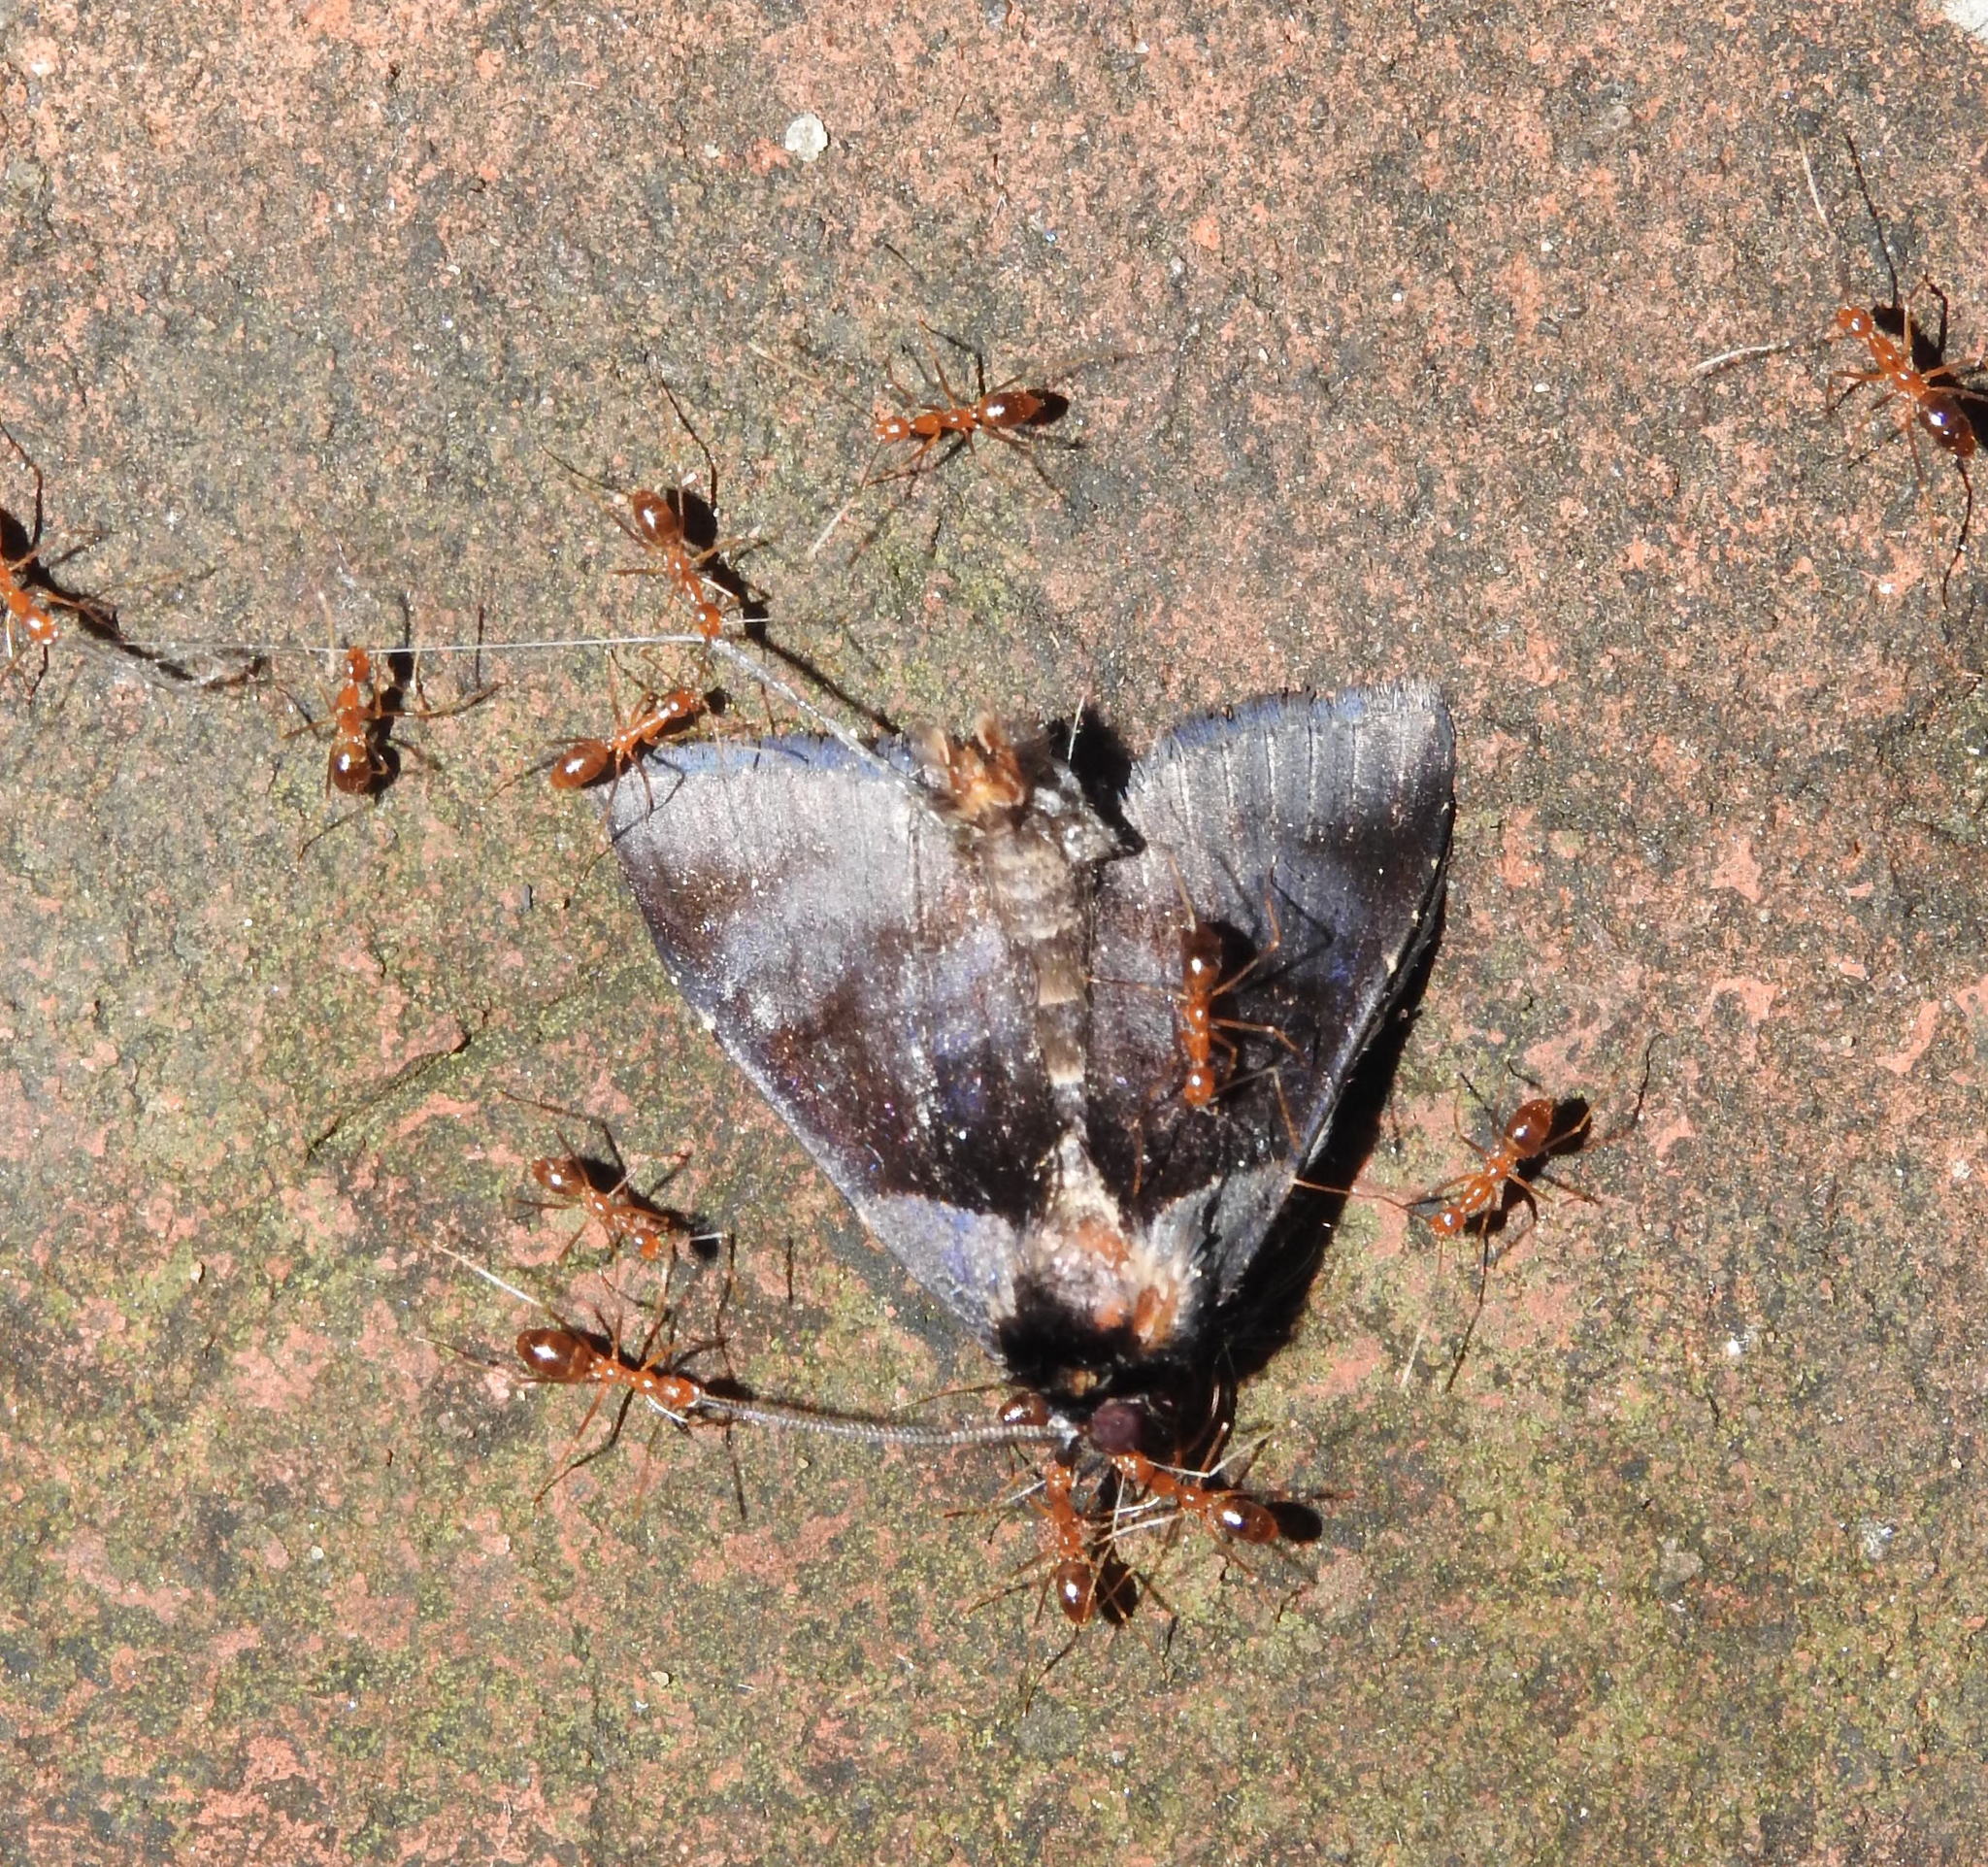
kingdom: Animalia
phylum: Arthropoda
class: Insecta
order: Hymenoptera
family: Formicidae
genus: Anoplolepis
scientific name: Anoplolepis gracilipes
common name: Ant
